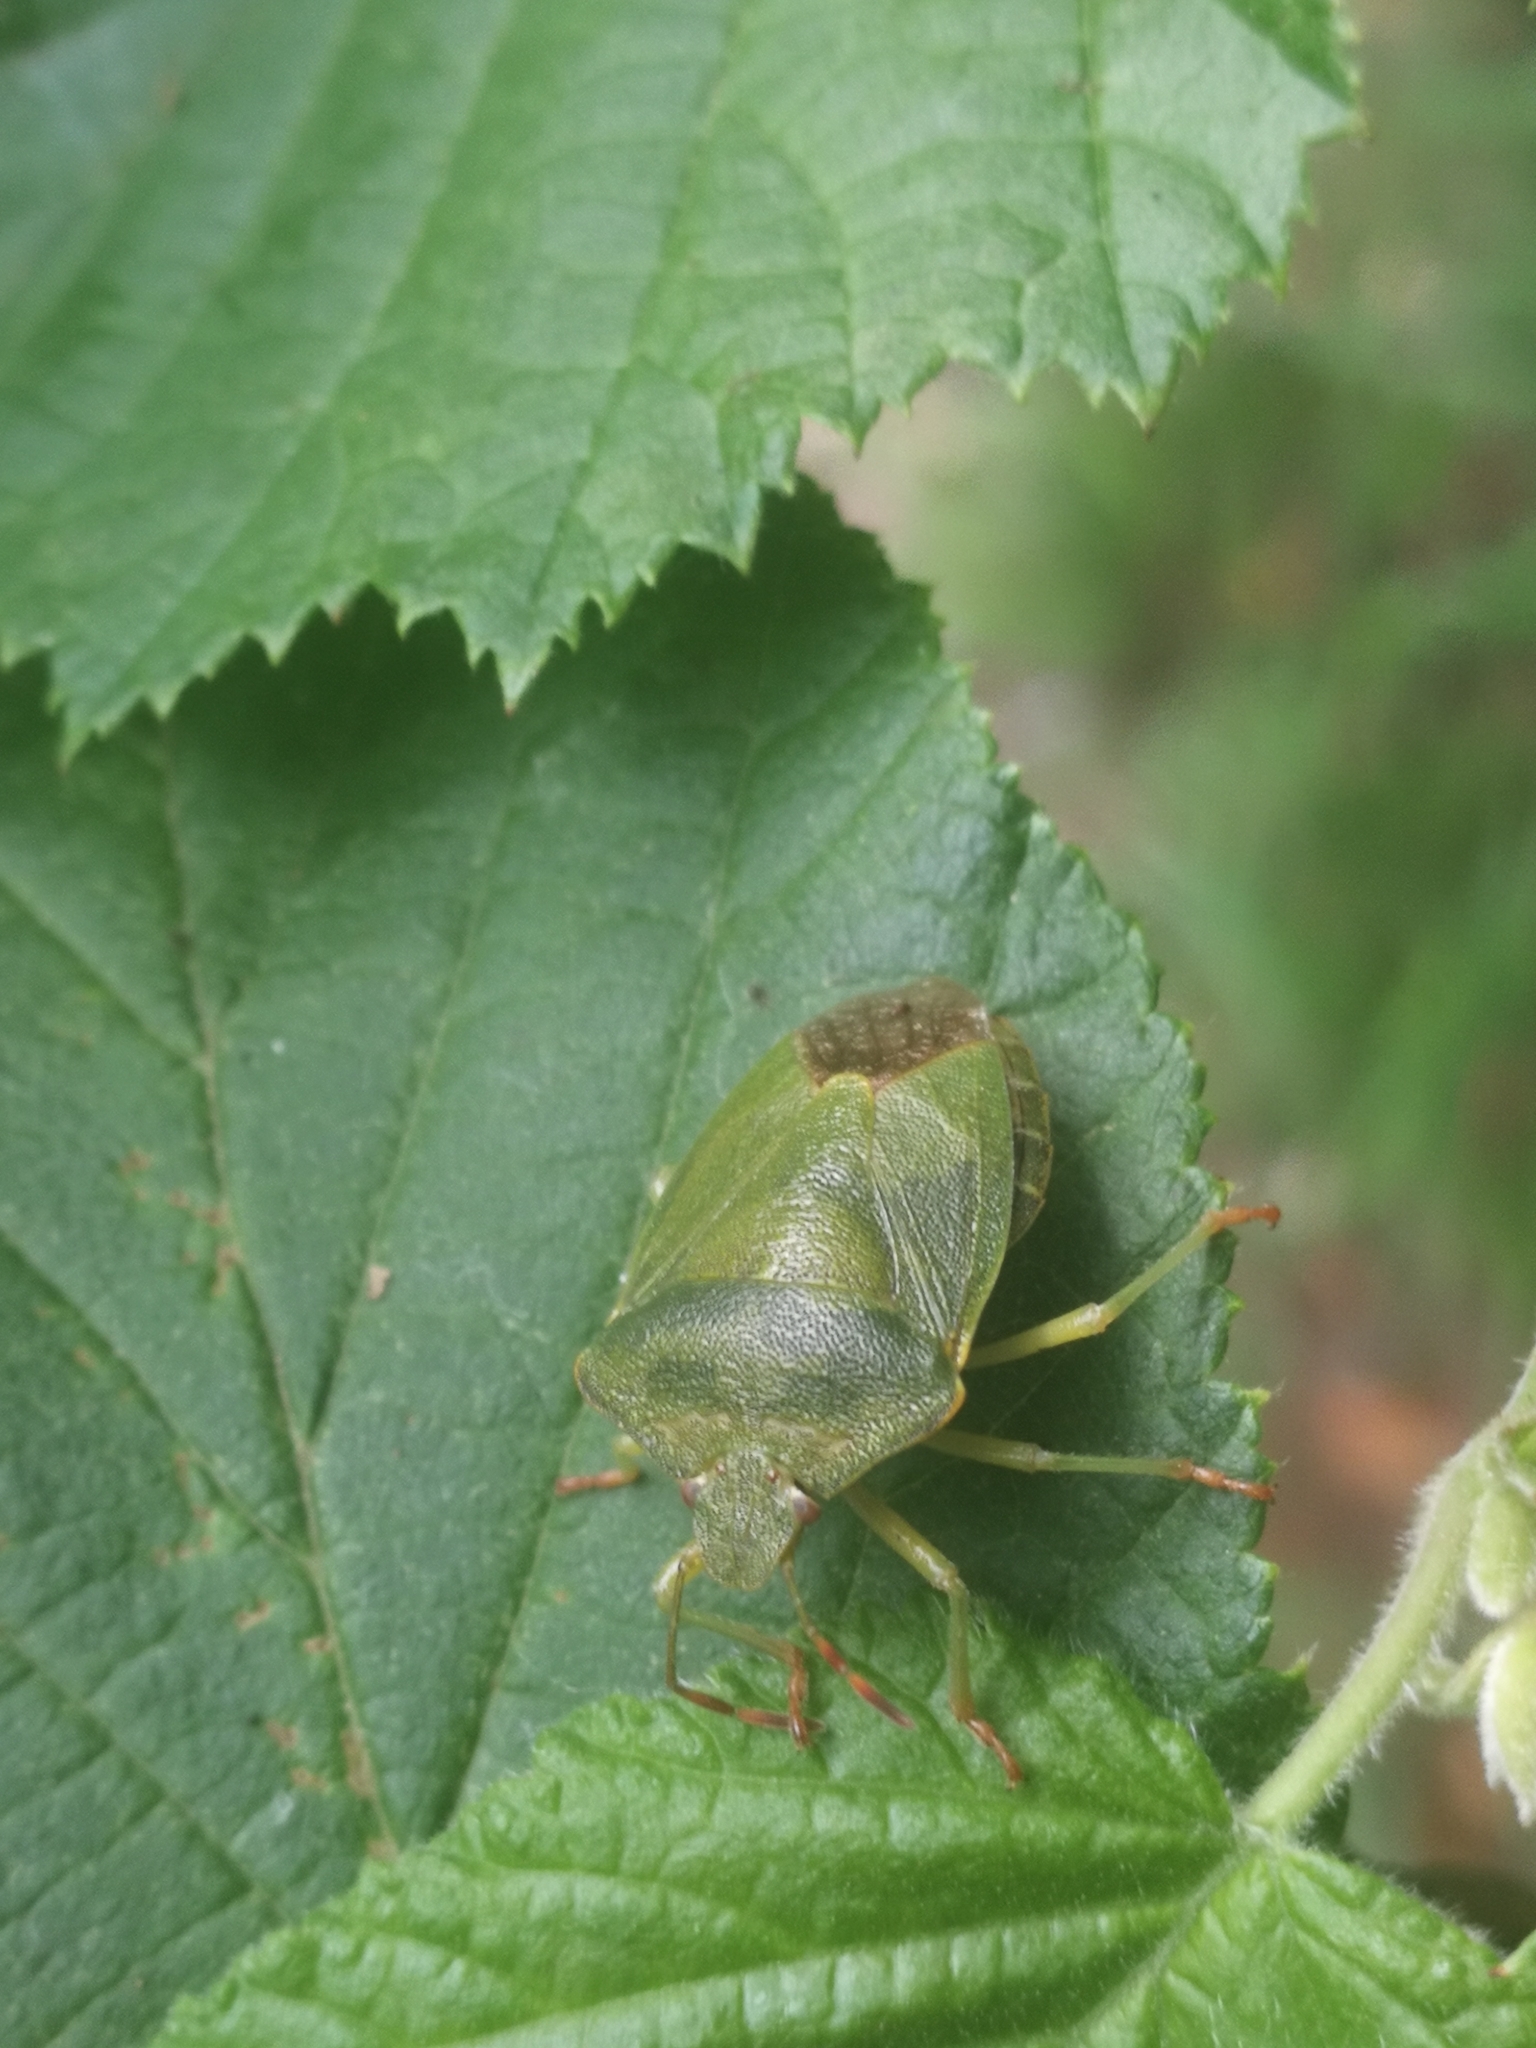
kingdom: Animalia
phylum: Arthropoda
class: Insecta
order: Hemiptera
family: Pentatomidae
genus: Palomena
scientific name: Palomena prasina
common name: Green shieldbug
